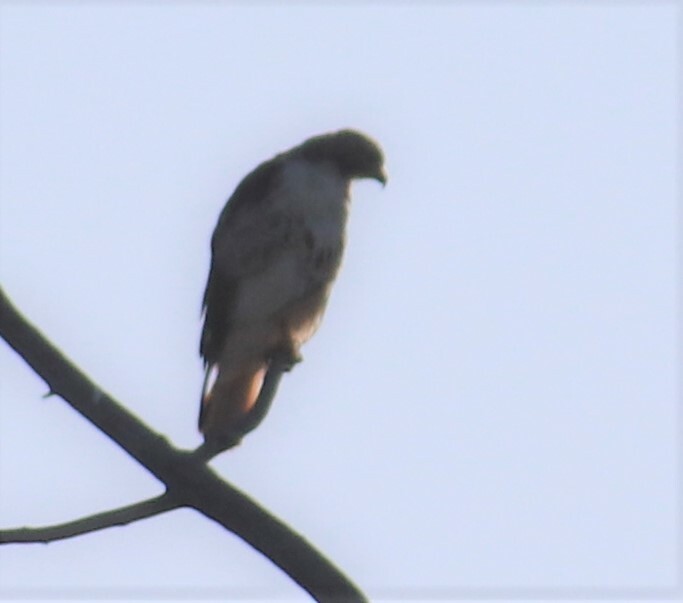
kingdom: Animalia
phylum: Chordata
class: Aves
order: Accipitriformes
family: Accipitridae
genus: Buteo
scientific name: Buteo jamaicensis
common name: Red-tailed hawk
